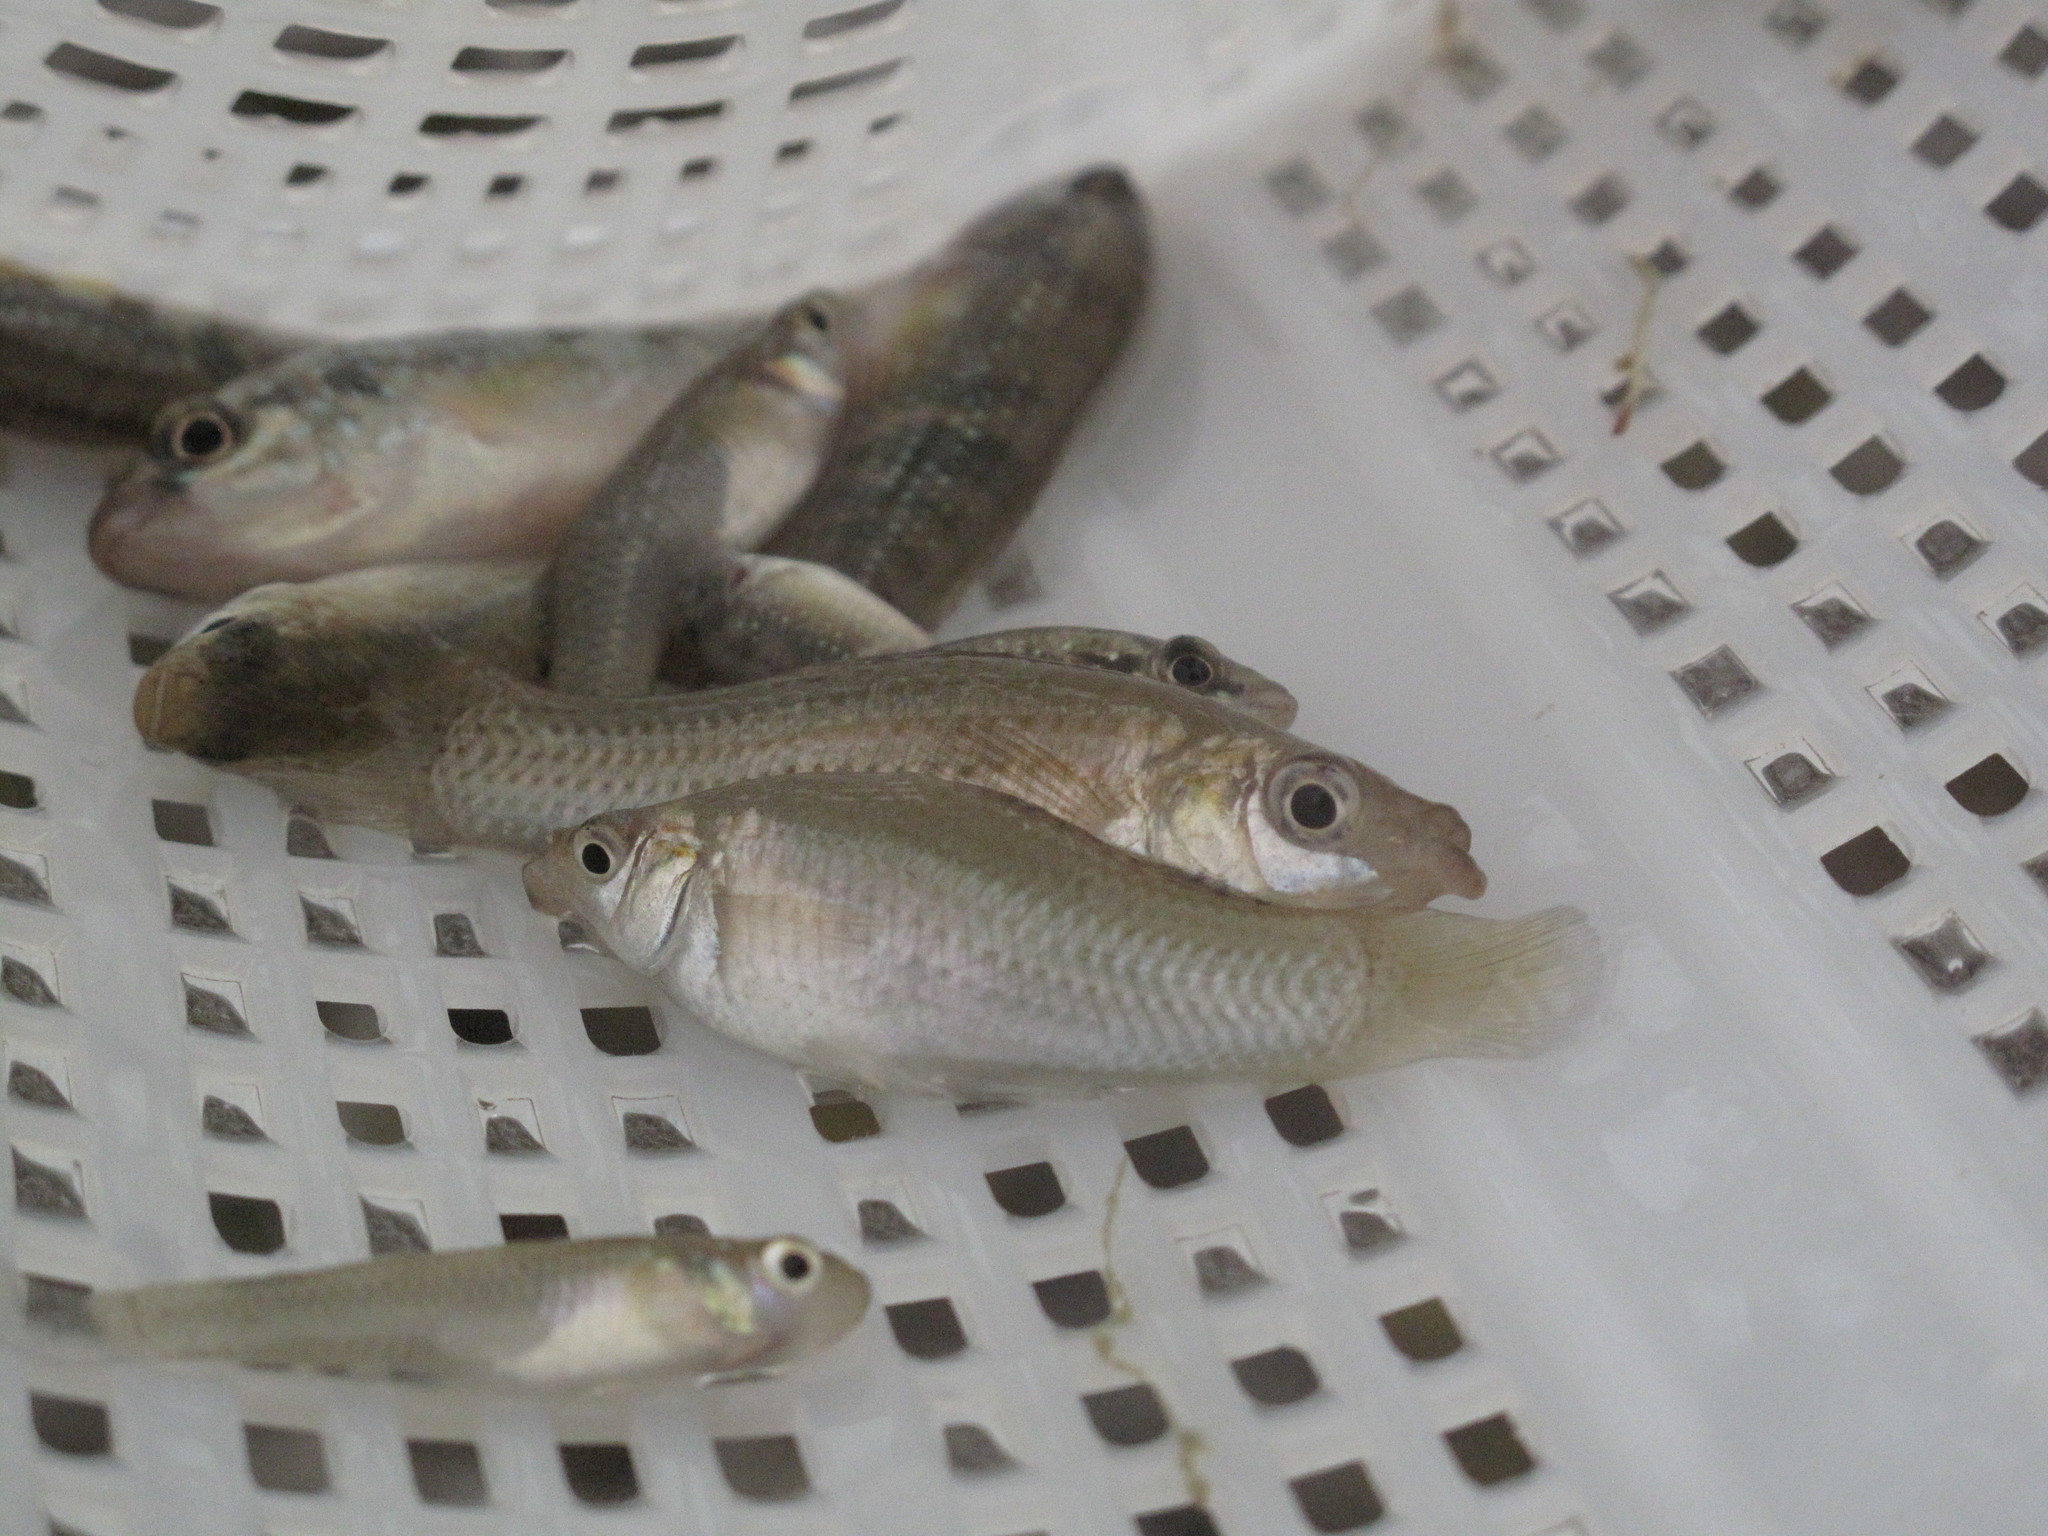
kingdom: Animalia
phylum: Chordata
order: Cyprinodontiformes
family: Poeciliidae
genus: Poecilia
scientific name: Poecilia latipinna
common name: Sailfin molly
